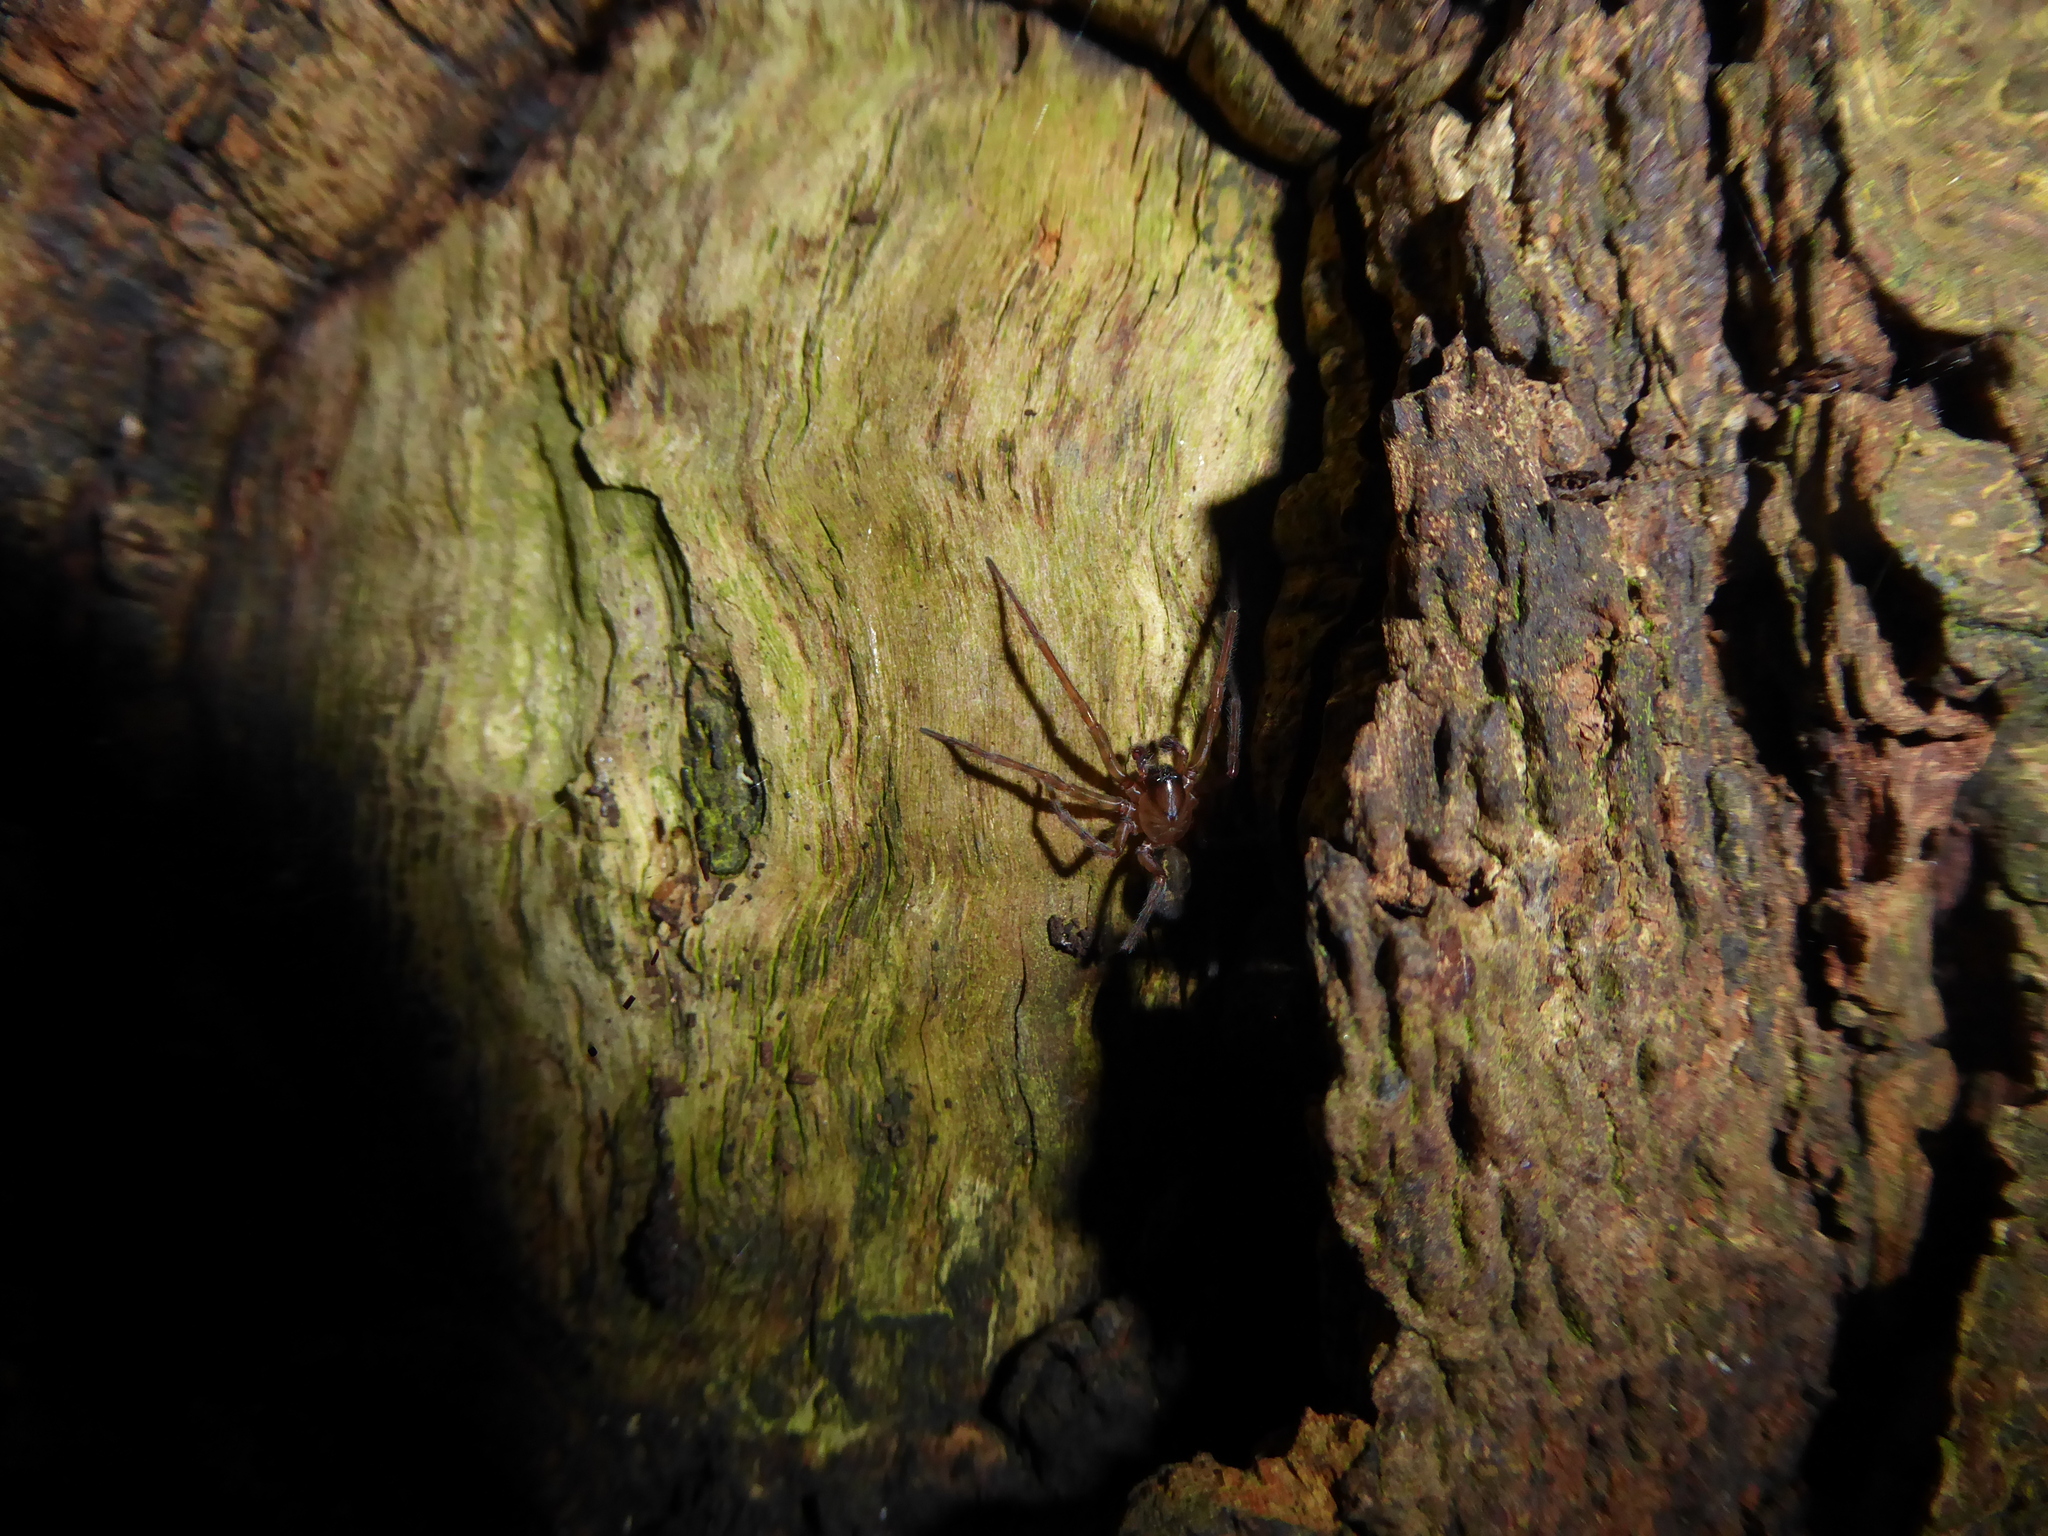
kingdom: Animalia
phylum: Arthropoda
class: Arachnida
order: Araneae
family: Amaurobiidae
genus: Amaurobius
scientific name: Amaurobius
